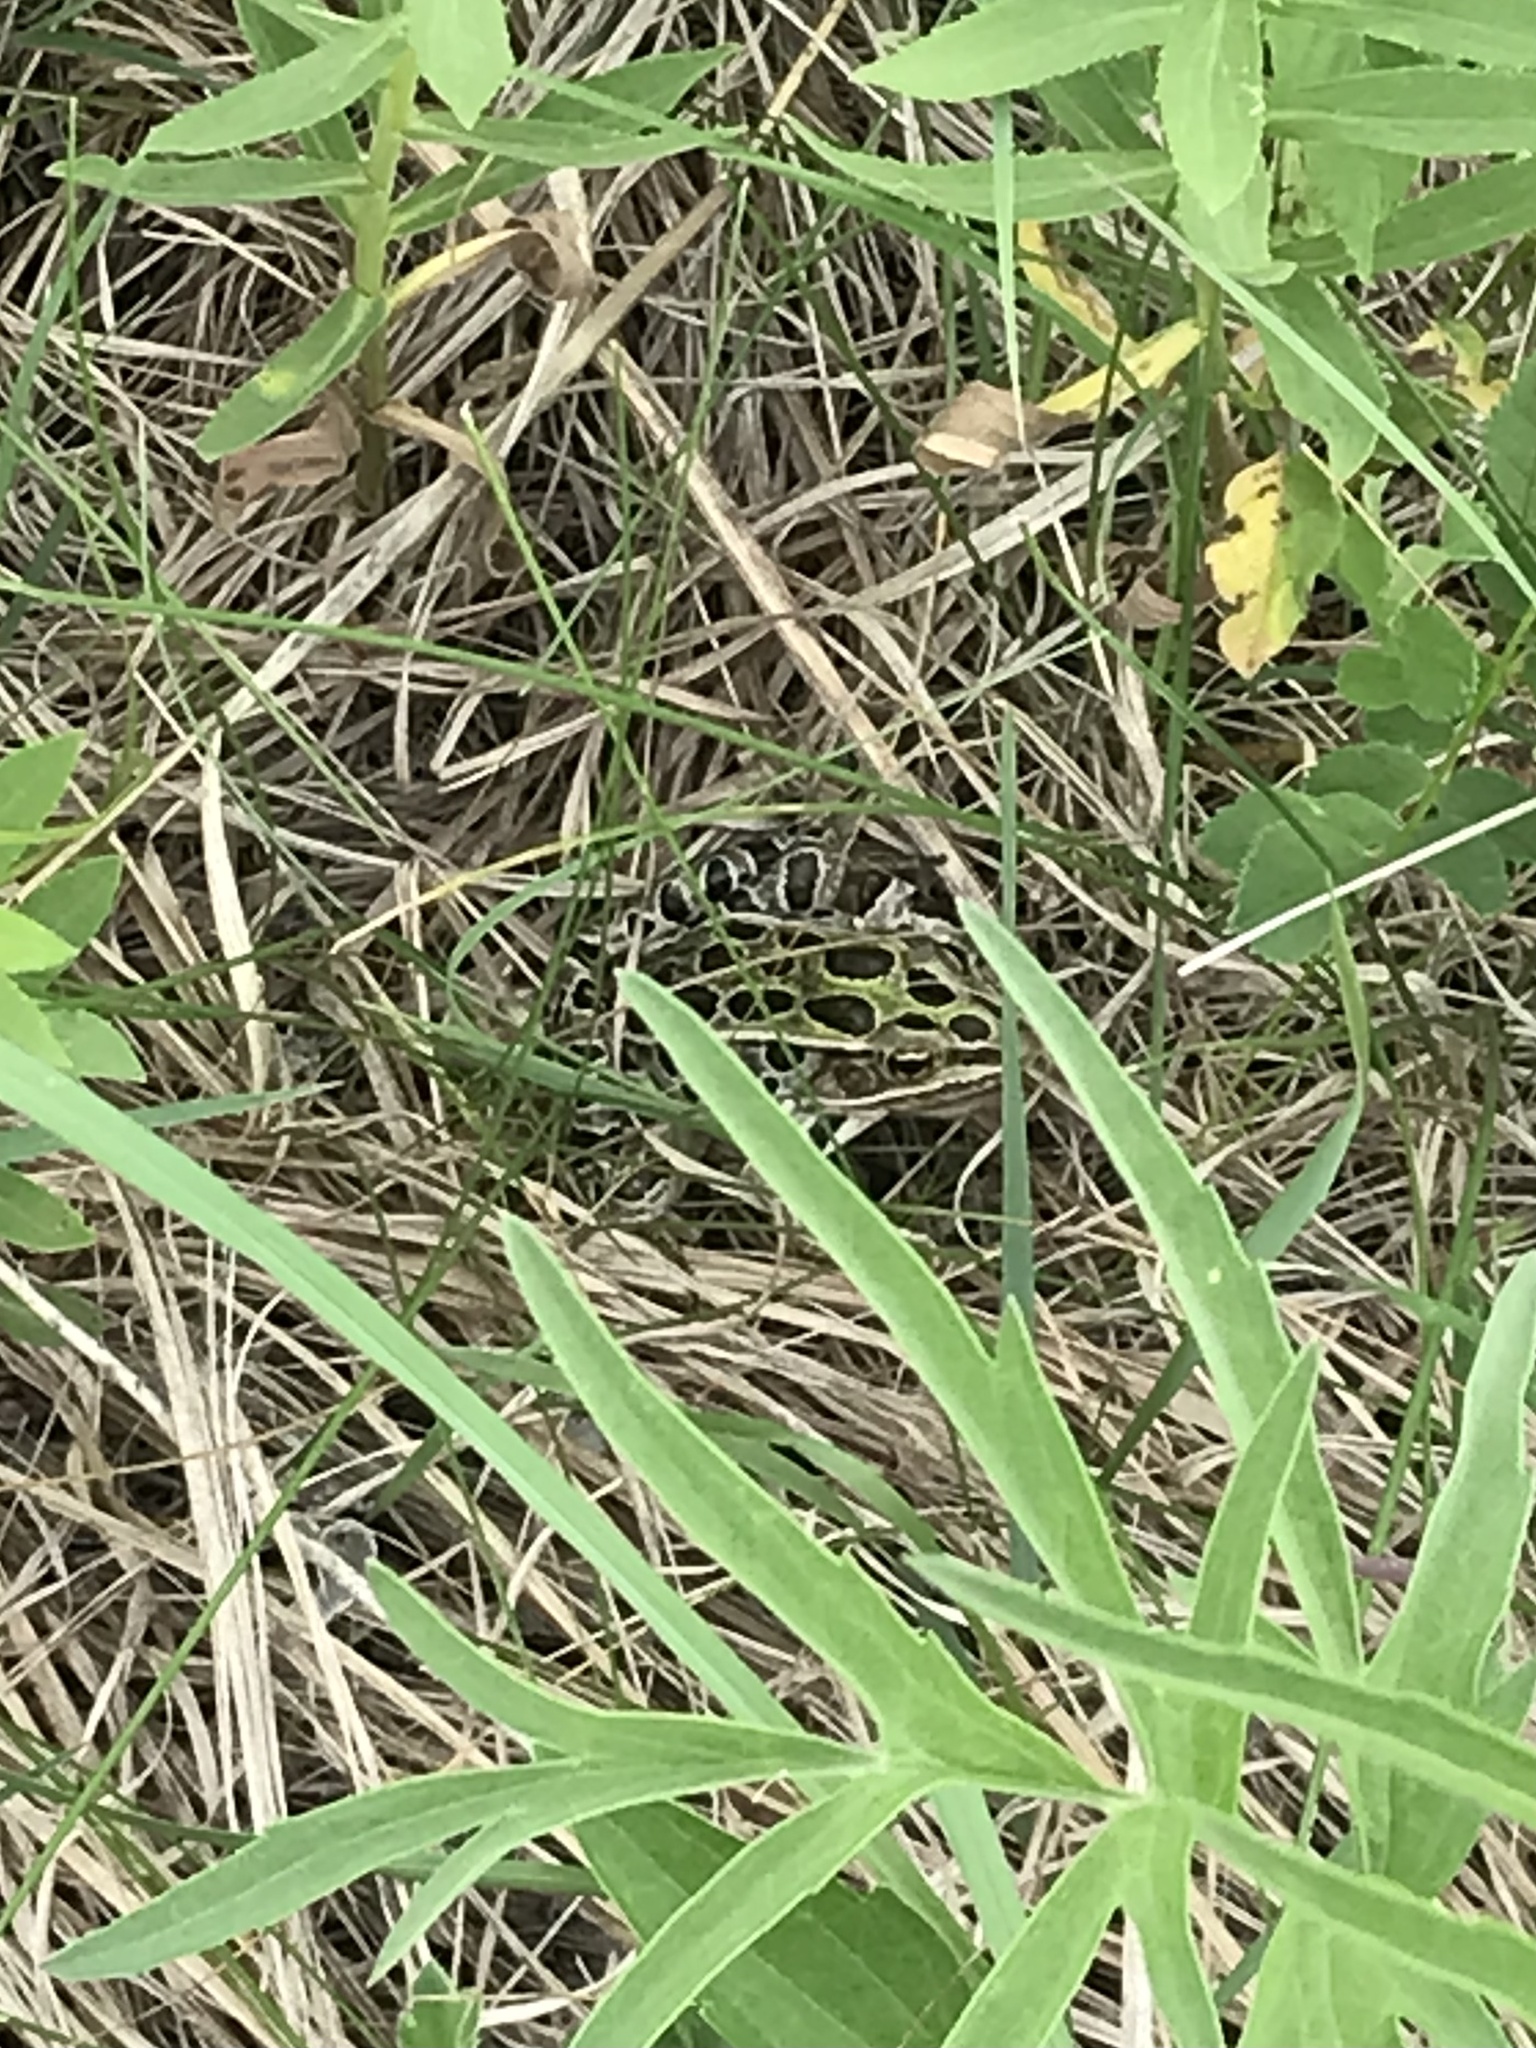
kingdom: Animalia
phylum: Chordata
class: Amphibia
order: Anura
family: Ranidae
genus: Lithobates
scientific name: Lithobates pipiens
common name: Northern leopard frog
